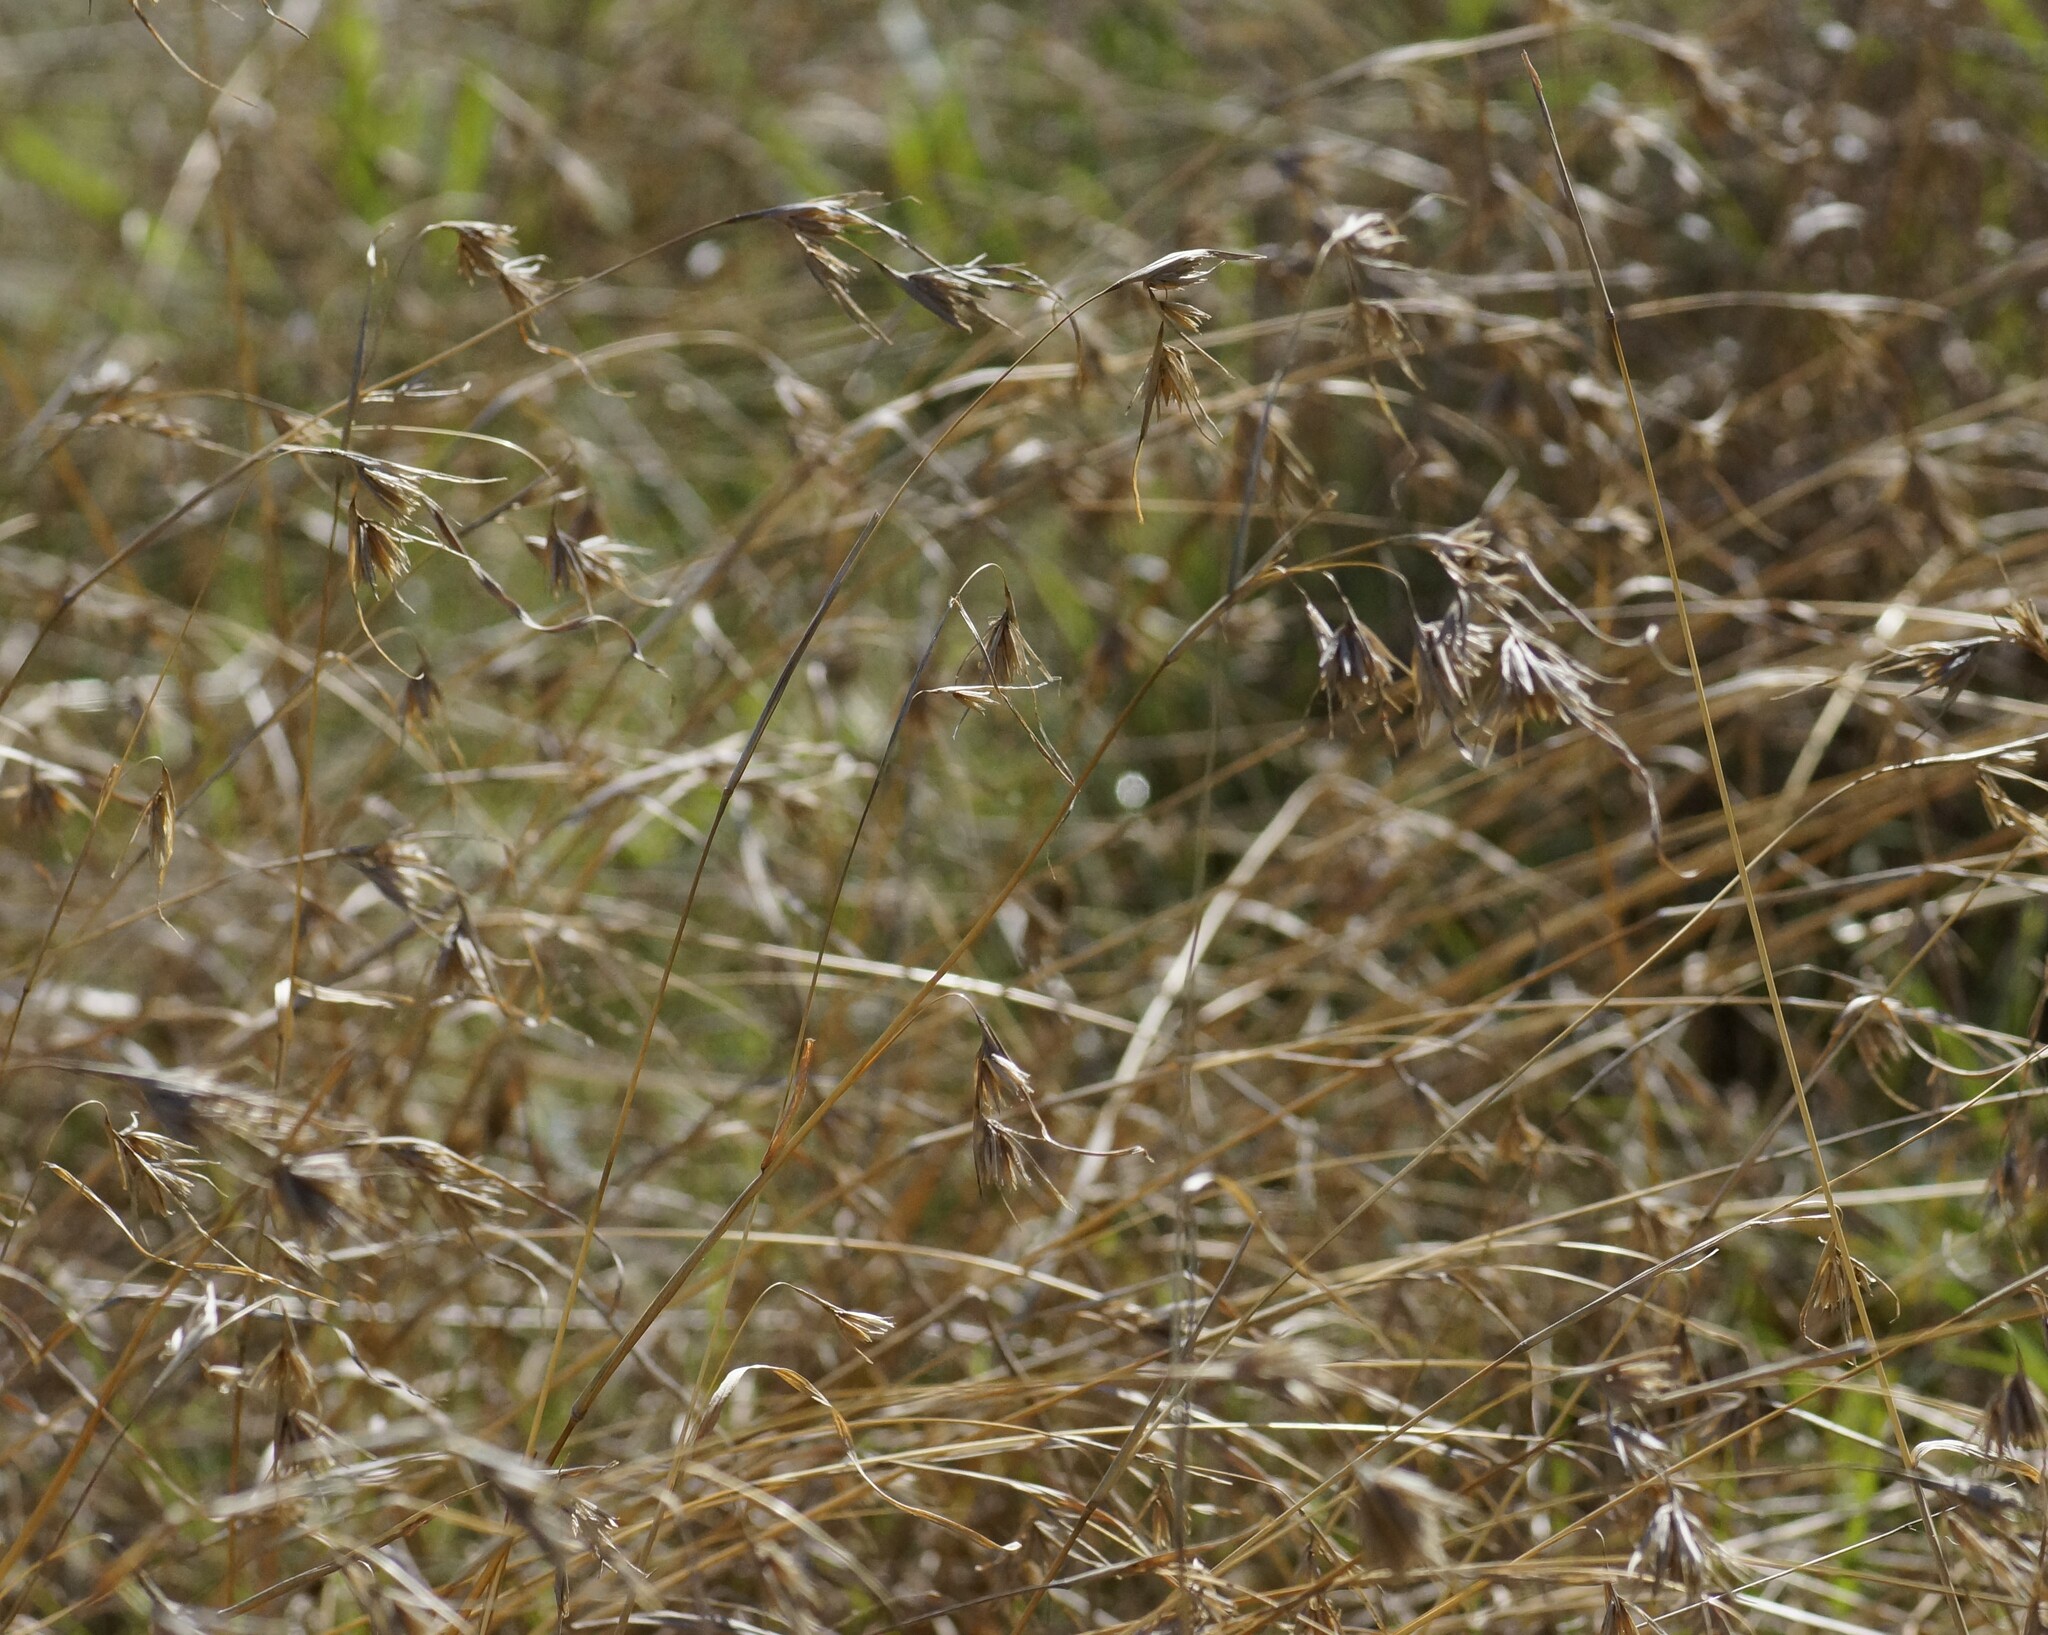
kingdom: Plantae
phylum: Tracheophyta
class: Liliopsida
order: Poales
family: Poaceae
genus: Themeda
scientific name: Themeda triandra
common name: Kangaroo grass
